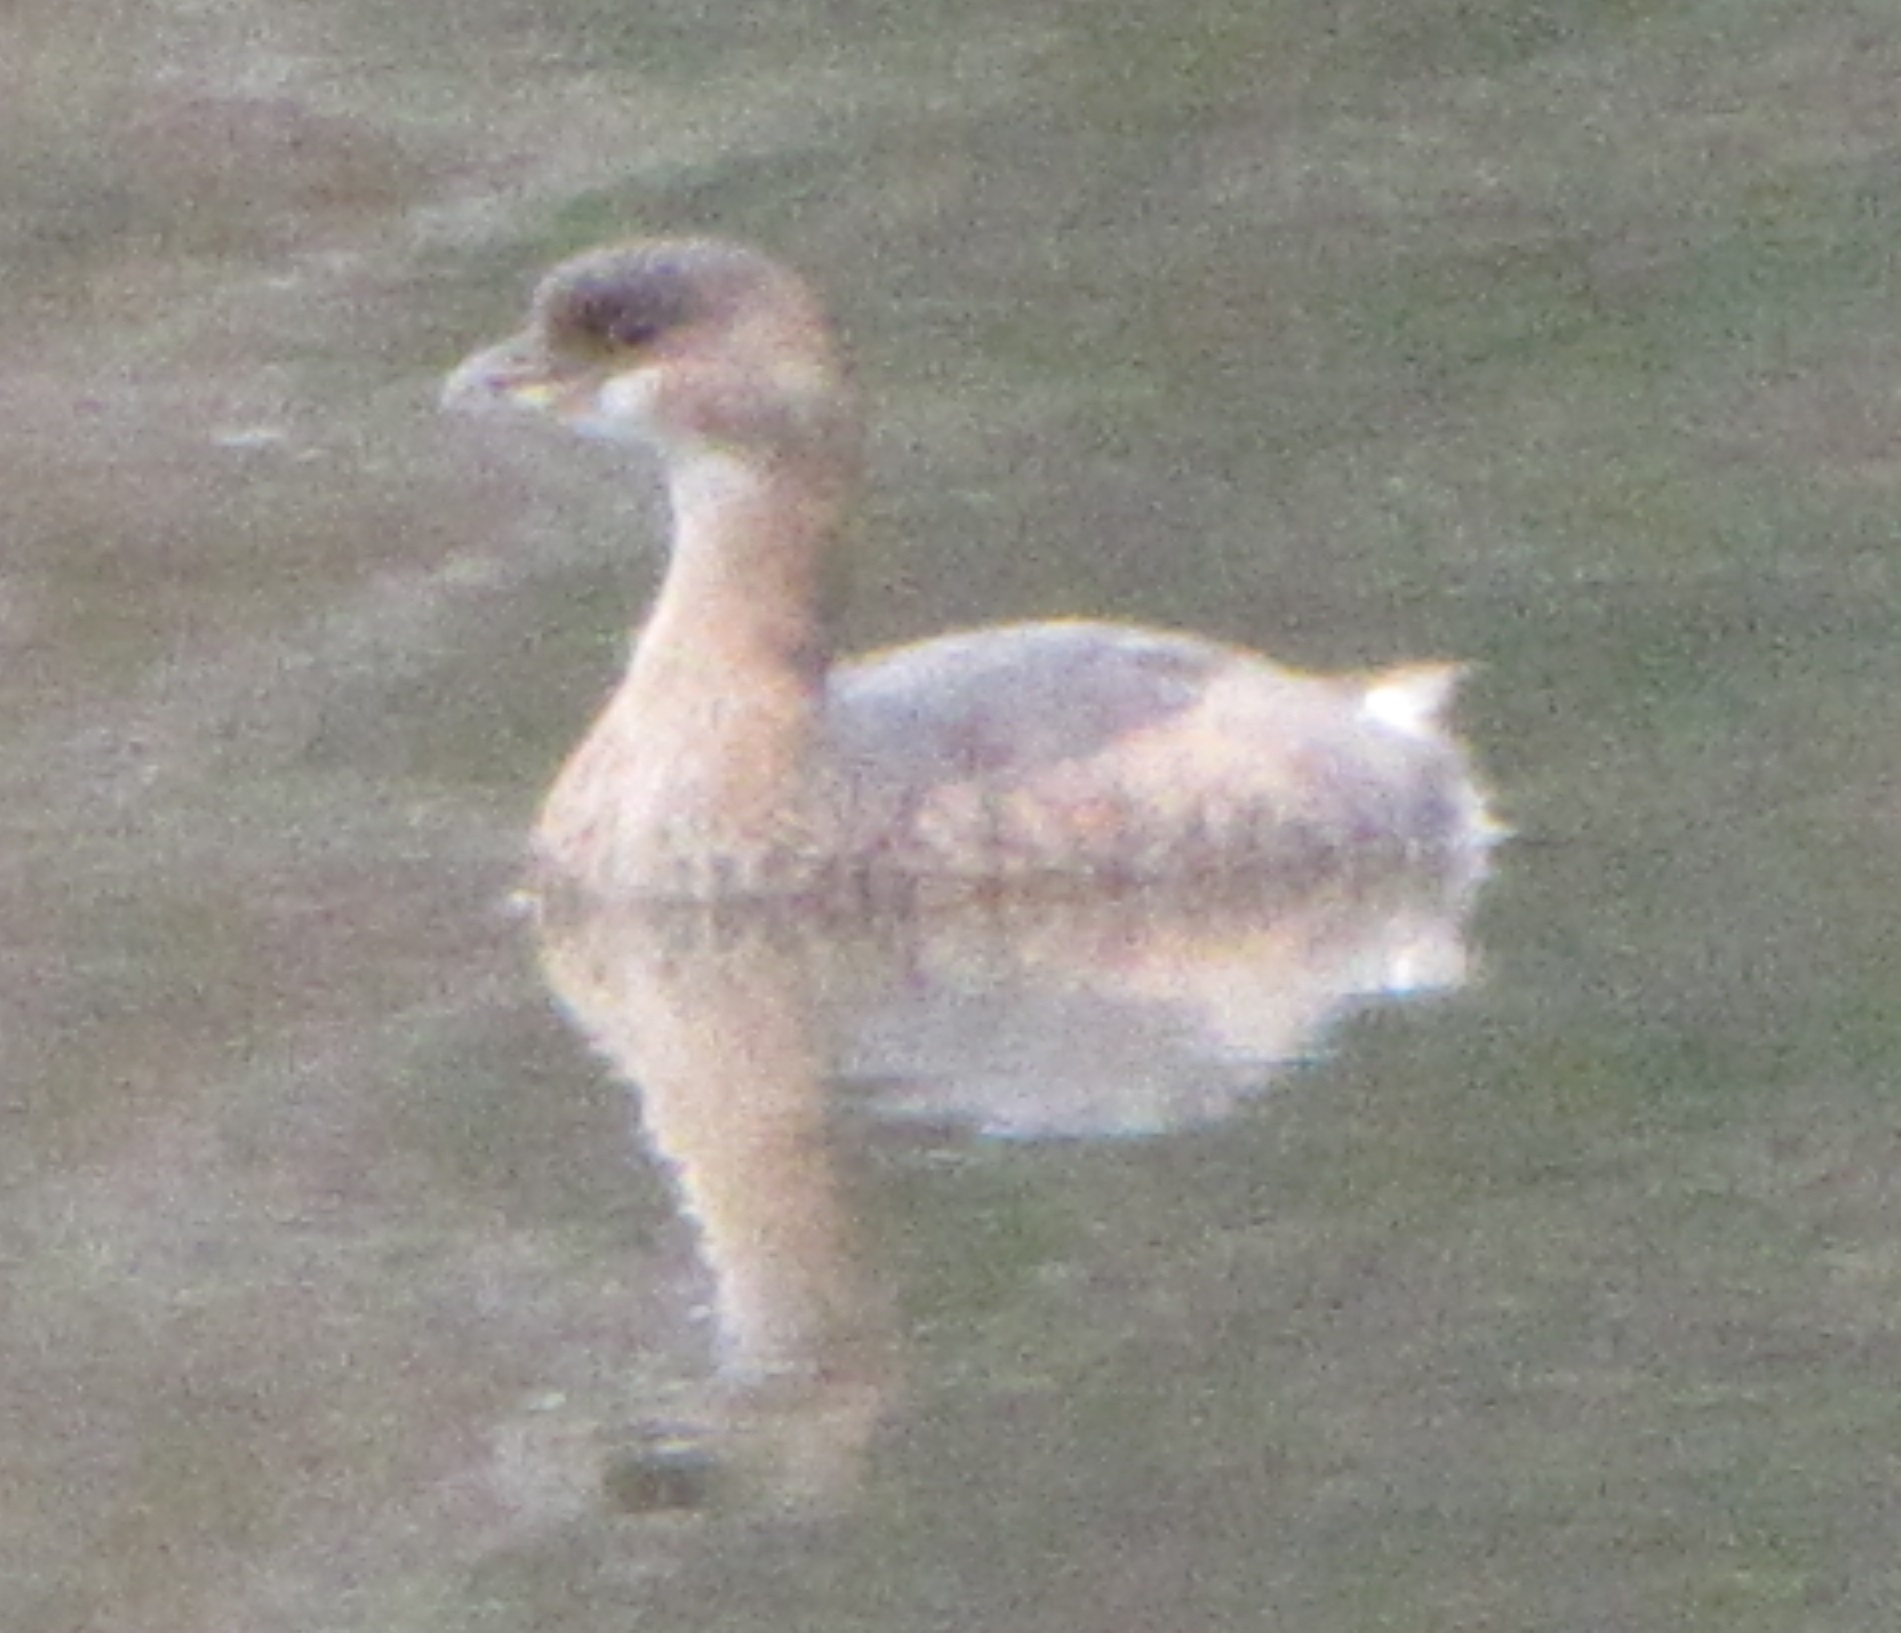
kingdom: Animalia
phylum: Chordata
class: Aves
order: Podicipediformes
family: Podicipedidae
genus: Podilymbus
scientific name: Podilymbus podiceps
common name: Pied-billed grebe
